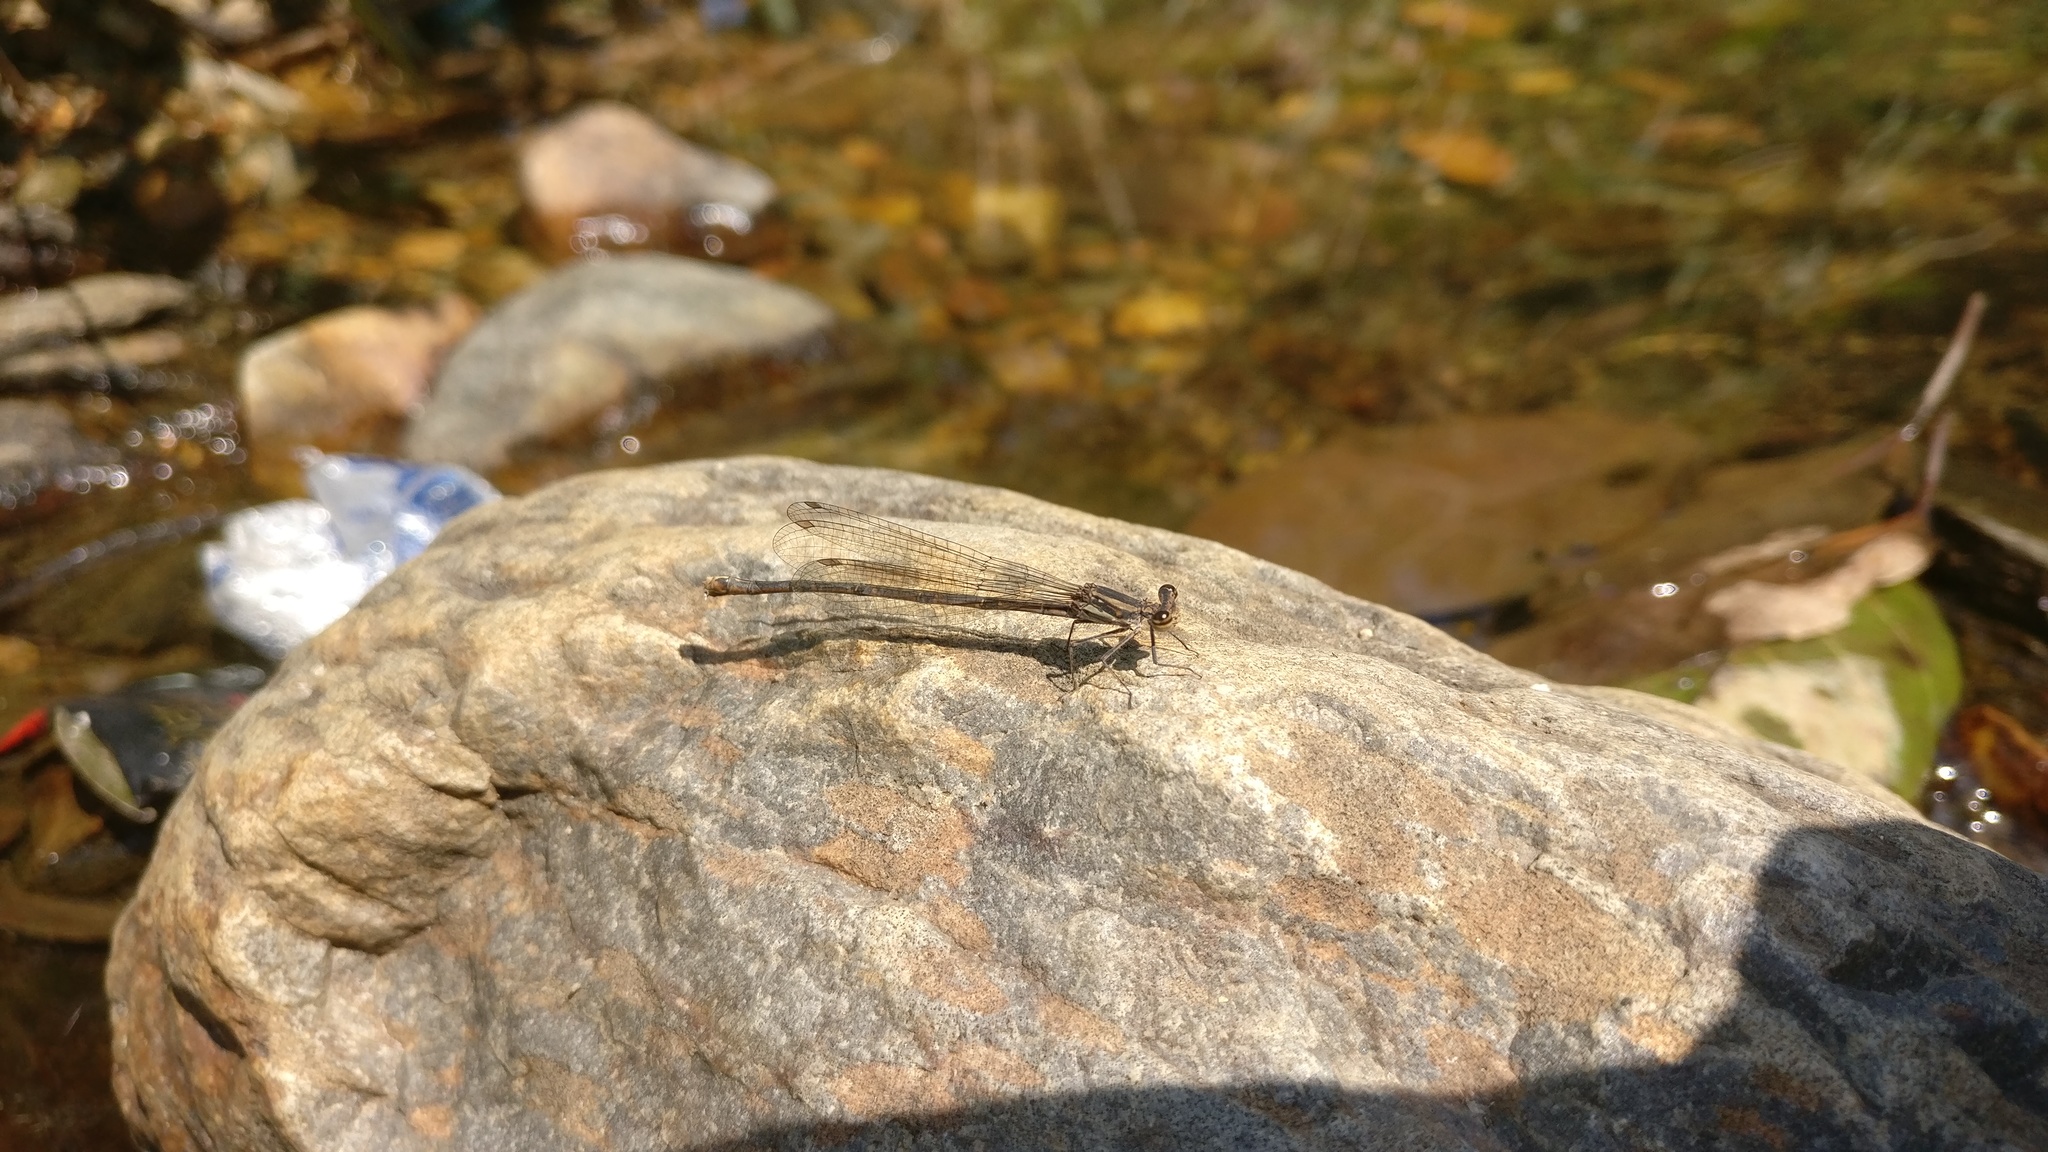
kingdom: Animalia
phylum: Arthropoda
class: Insecta
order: Odonata
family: Platycnemididae
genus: Disparoneura
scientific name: Disparoneura quadrimaculata
